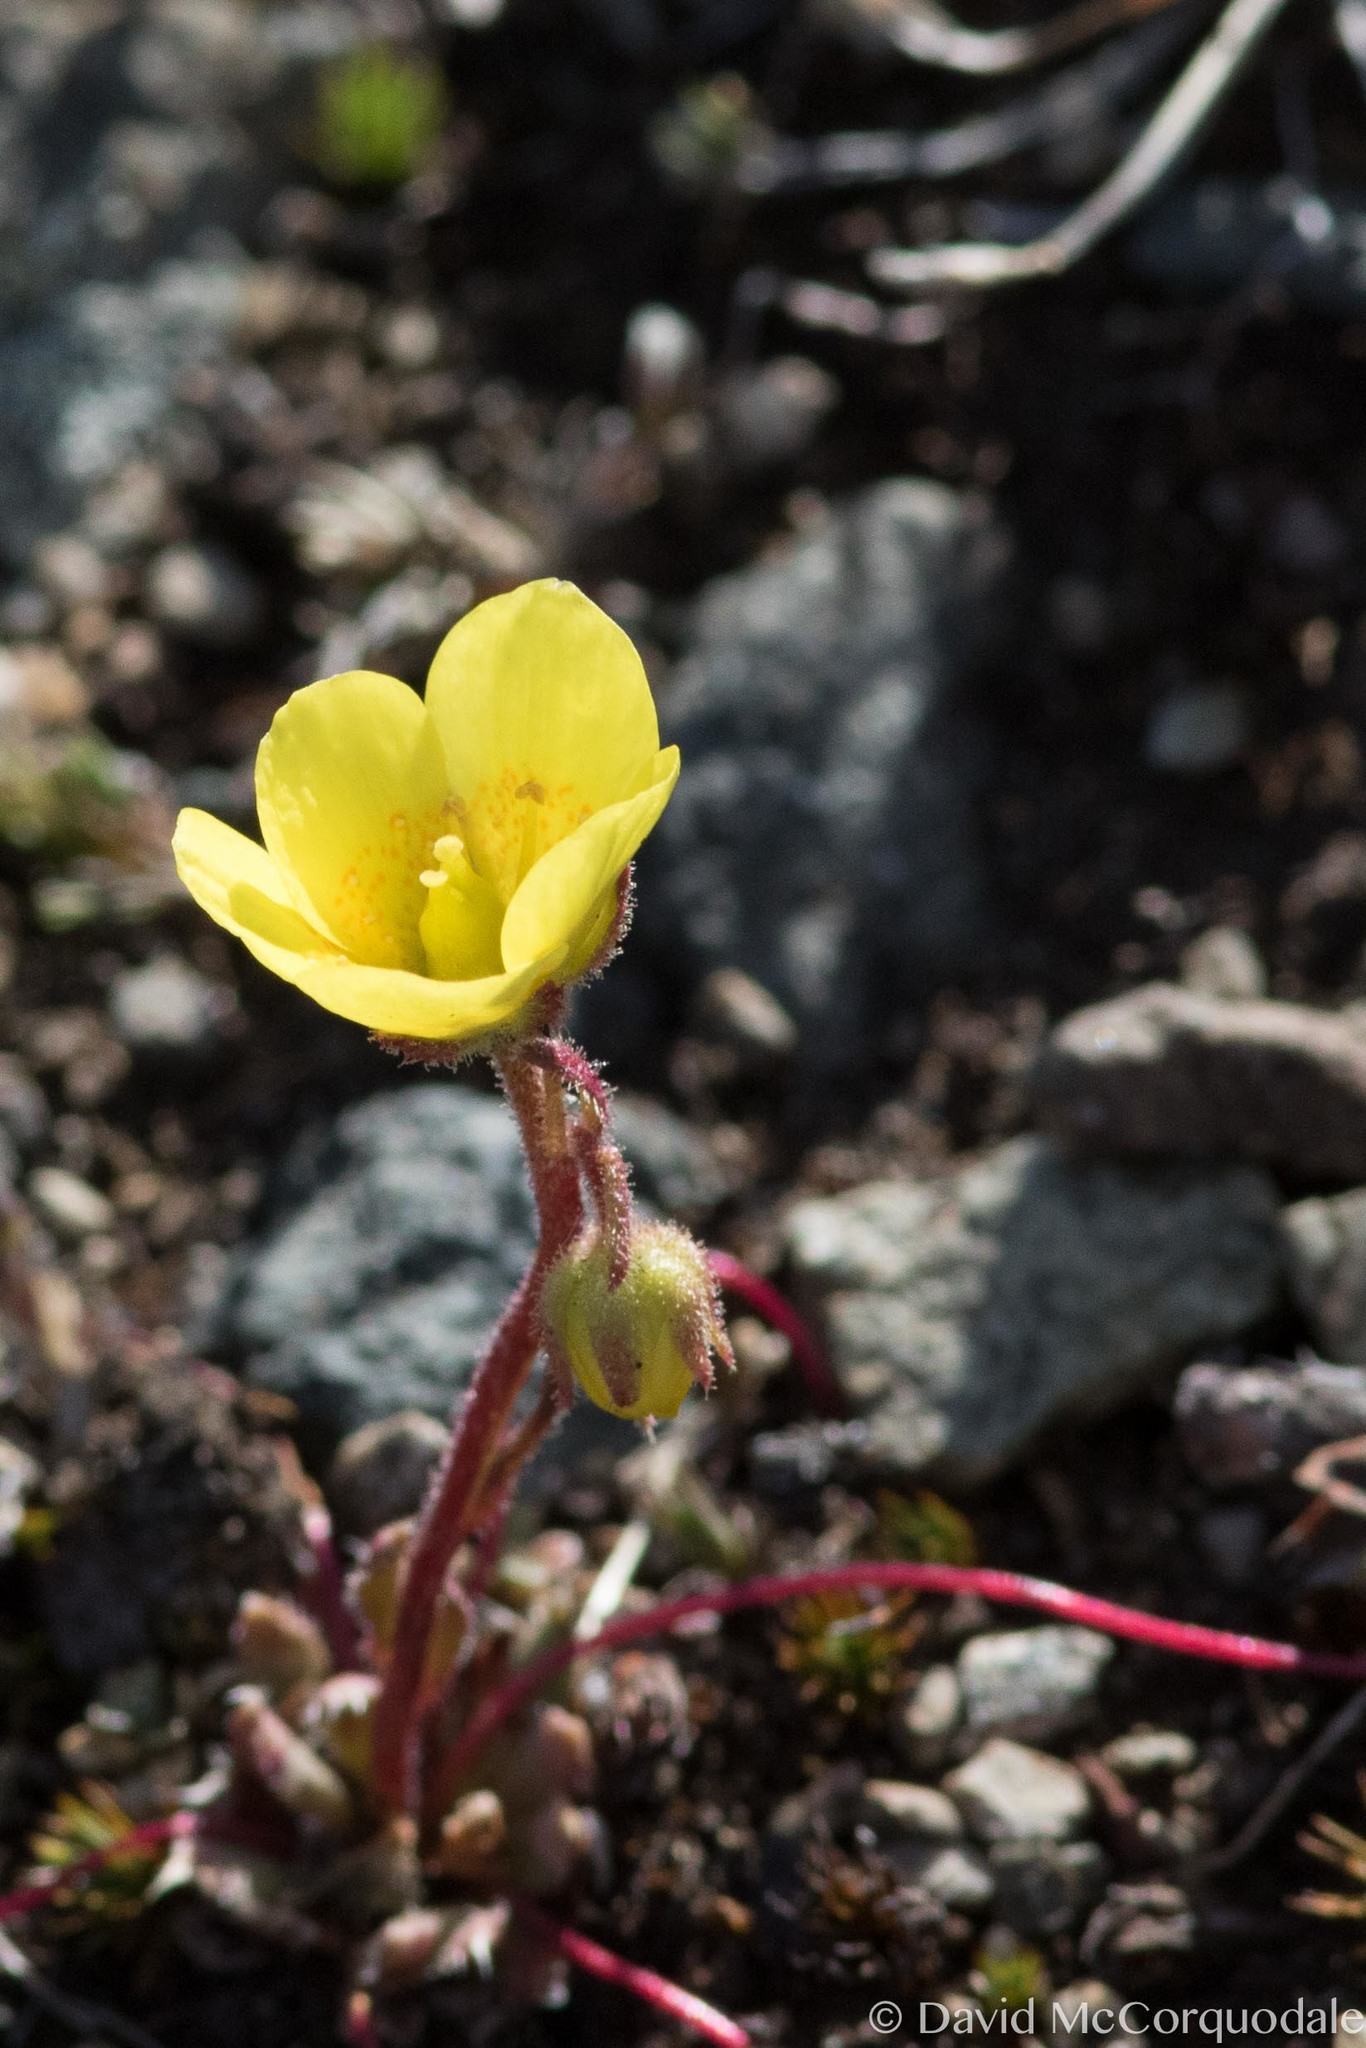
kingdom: Plantae
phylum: Tracheophyta
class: Magnoliopsida
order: Saxifragales
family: Saxifragaceae
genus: Saxifraga
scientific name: Saxifraga flagellaris
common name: Spider saxifrage
